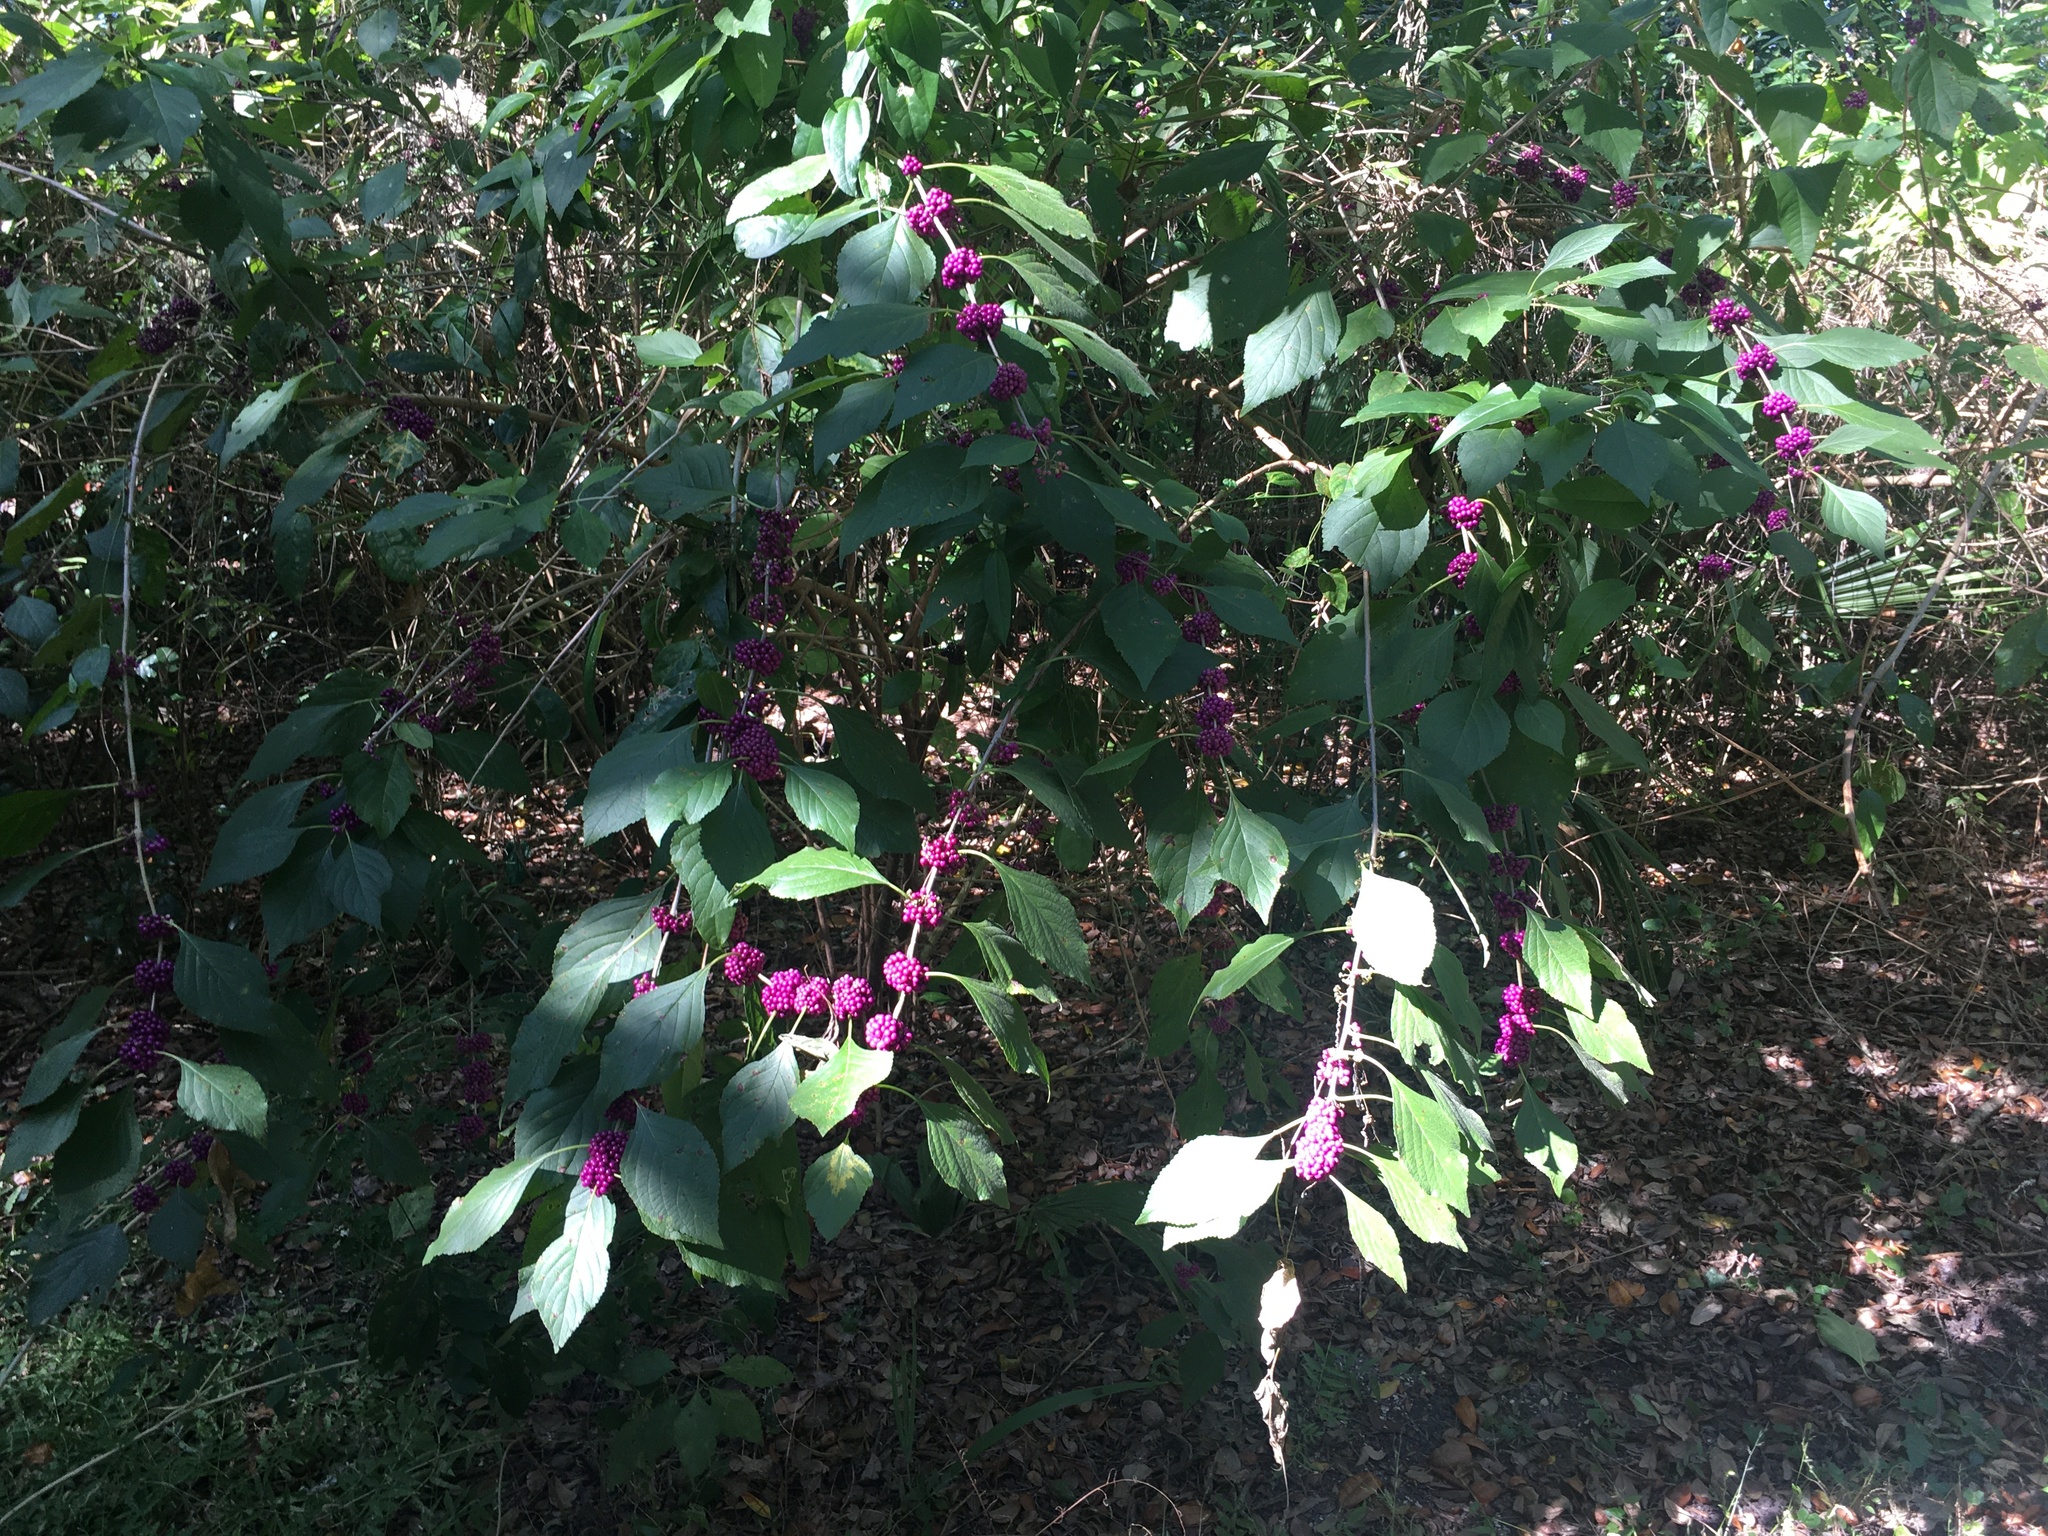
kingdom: Plantae
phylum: Tracheophyta
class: Magnoliopsida
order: Lamiales
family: Lamiaceae
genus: Callicarpa
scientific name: Callicarpa americana
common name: American beautyberry
